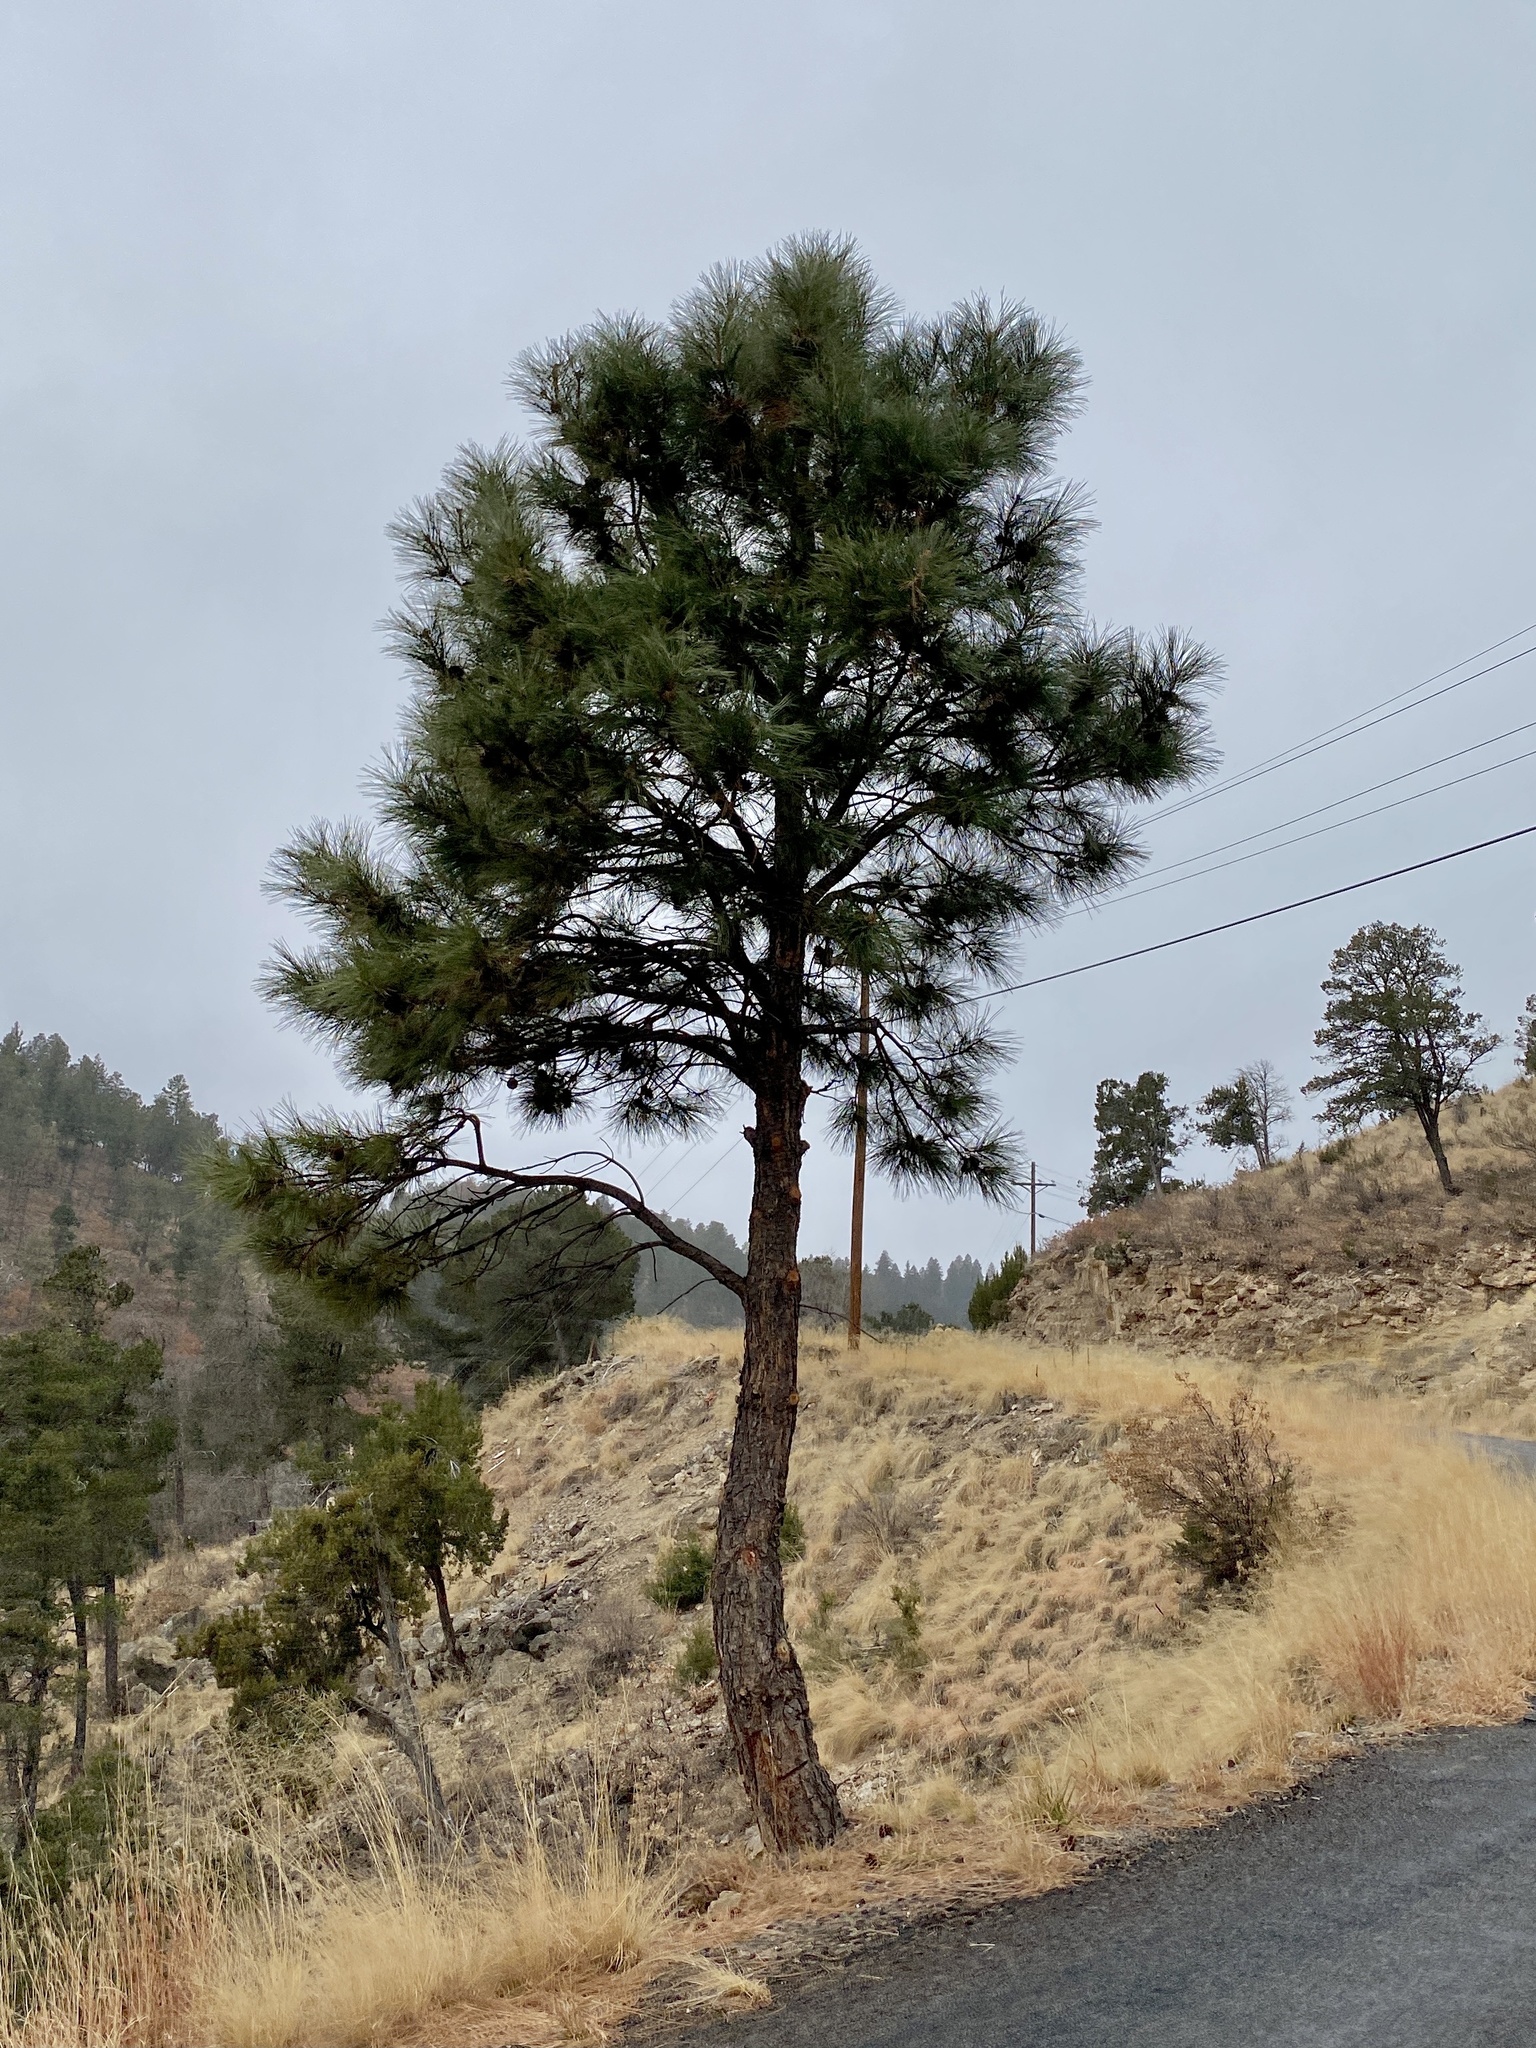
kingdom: Plantae
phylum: Tracheophyta
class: Pinopsida
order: Pinales
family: Pinaceae
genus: Pinus
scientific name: Pinus ponderosa
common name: Western yellow-pine
